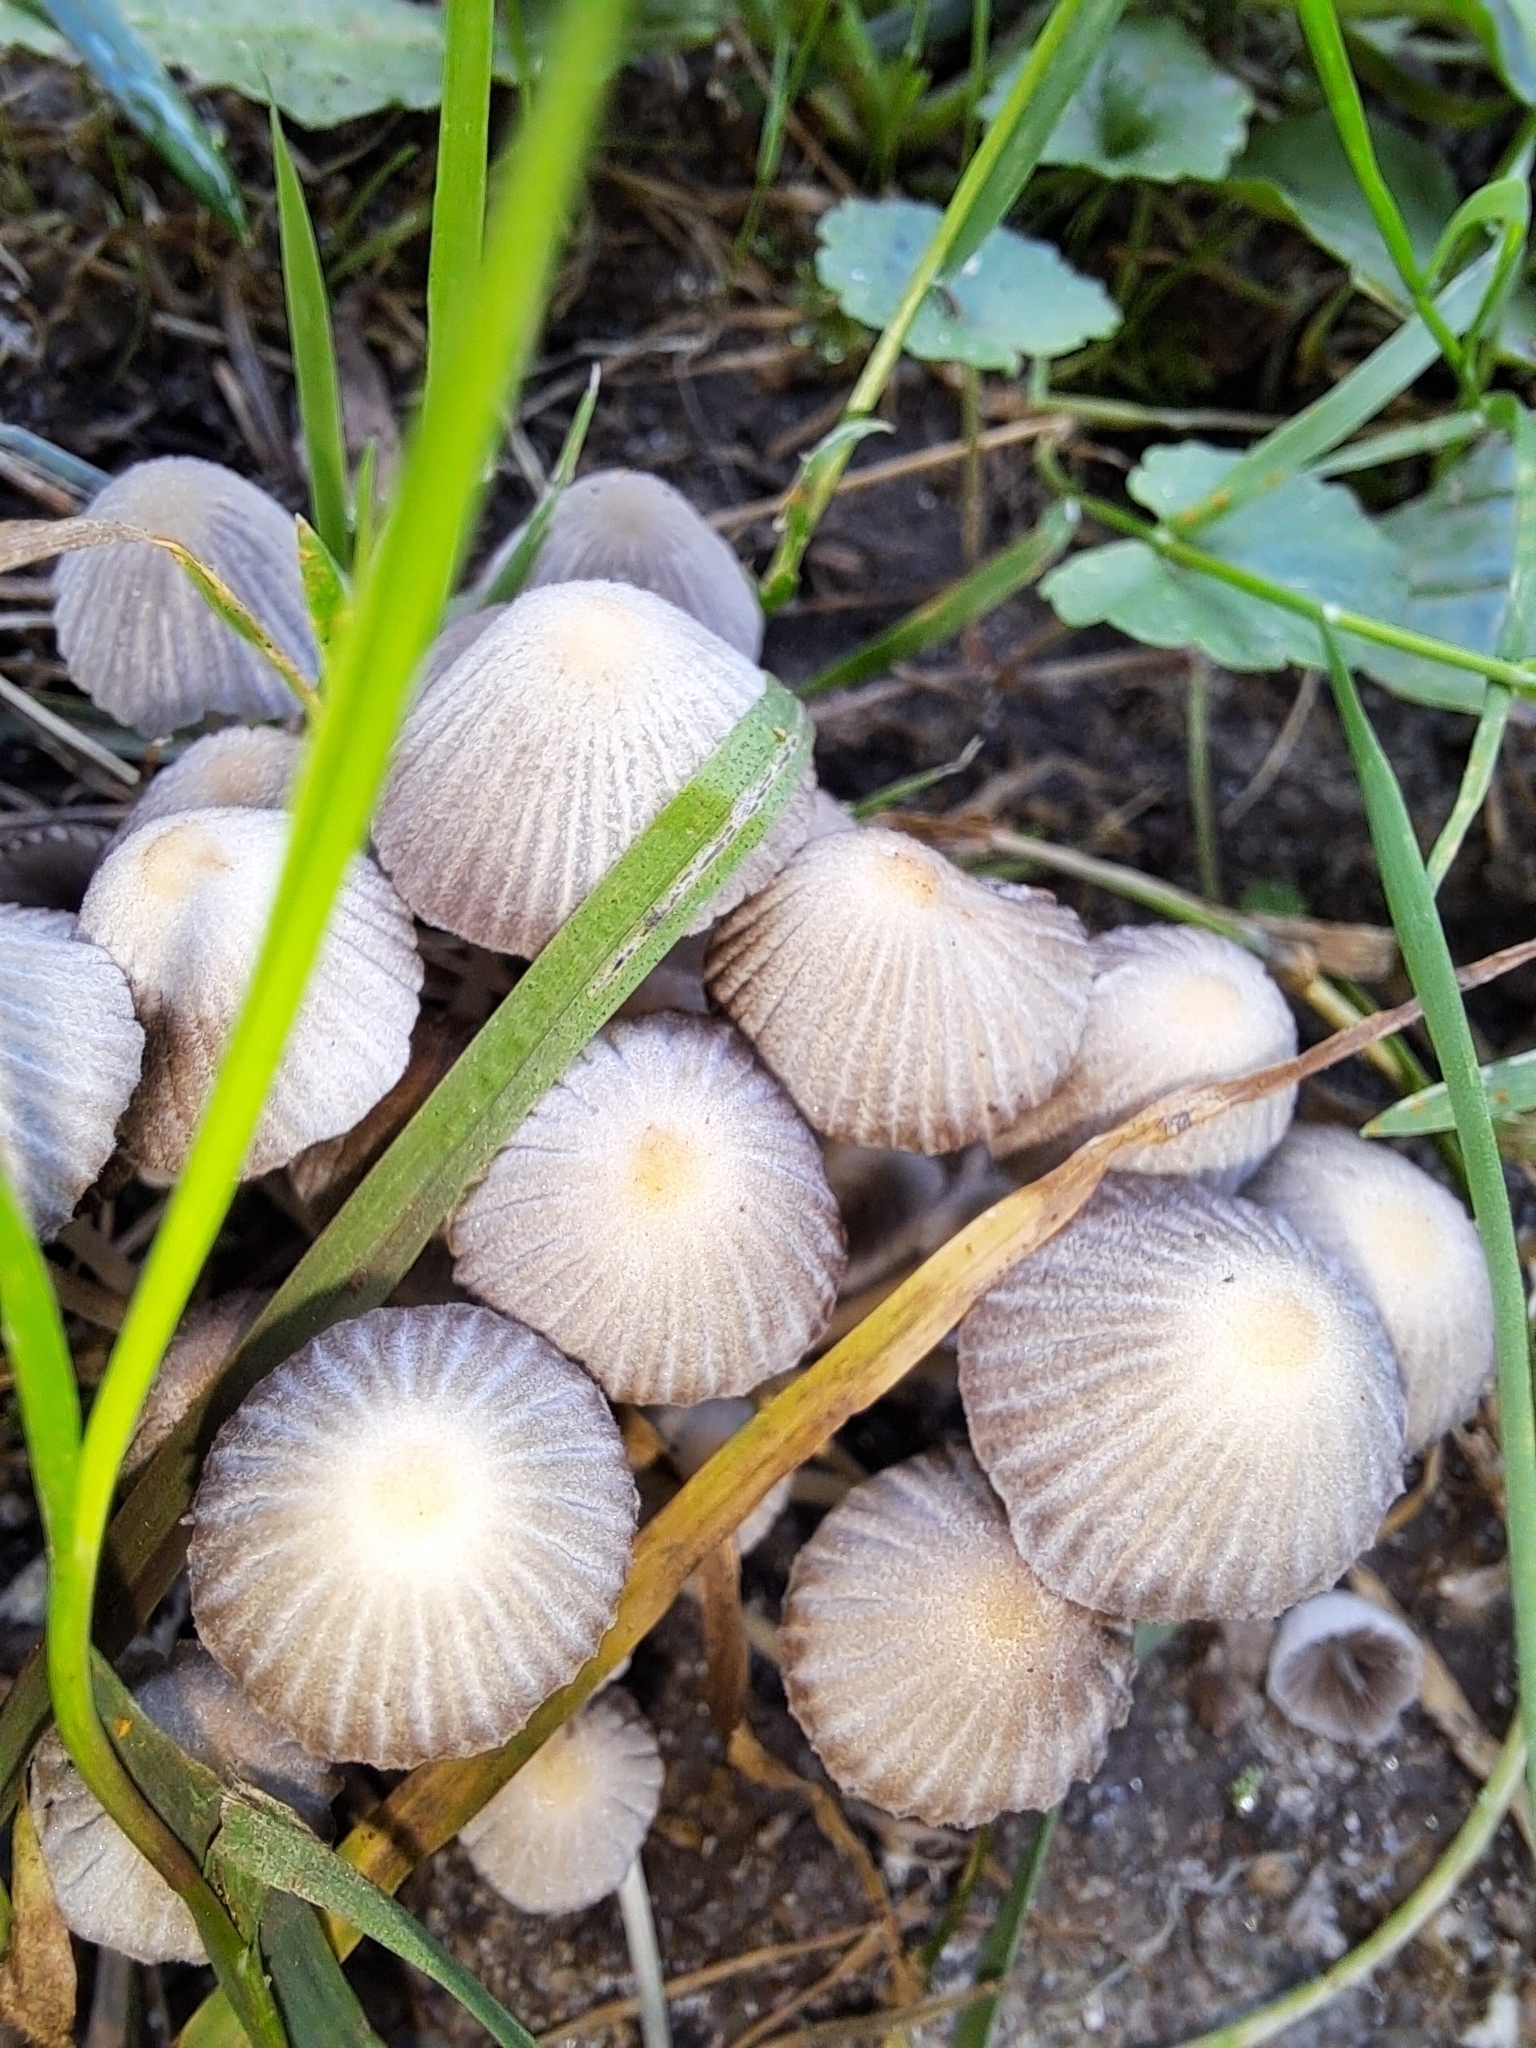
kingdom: Fungi
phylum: Basidiomycota
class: Agaricomycetes
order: Agaricales
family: Psathyrellaceae
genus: Coprinellus
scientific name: Coprinellus disseminatus
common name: Fairies' bonnets
